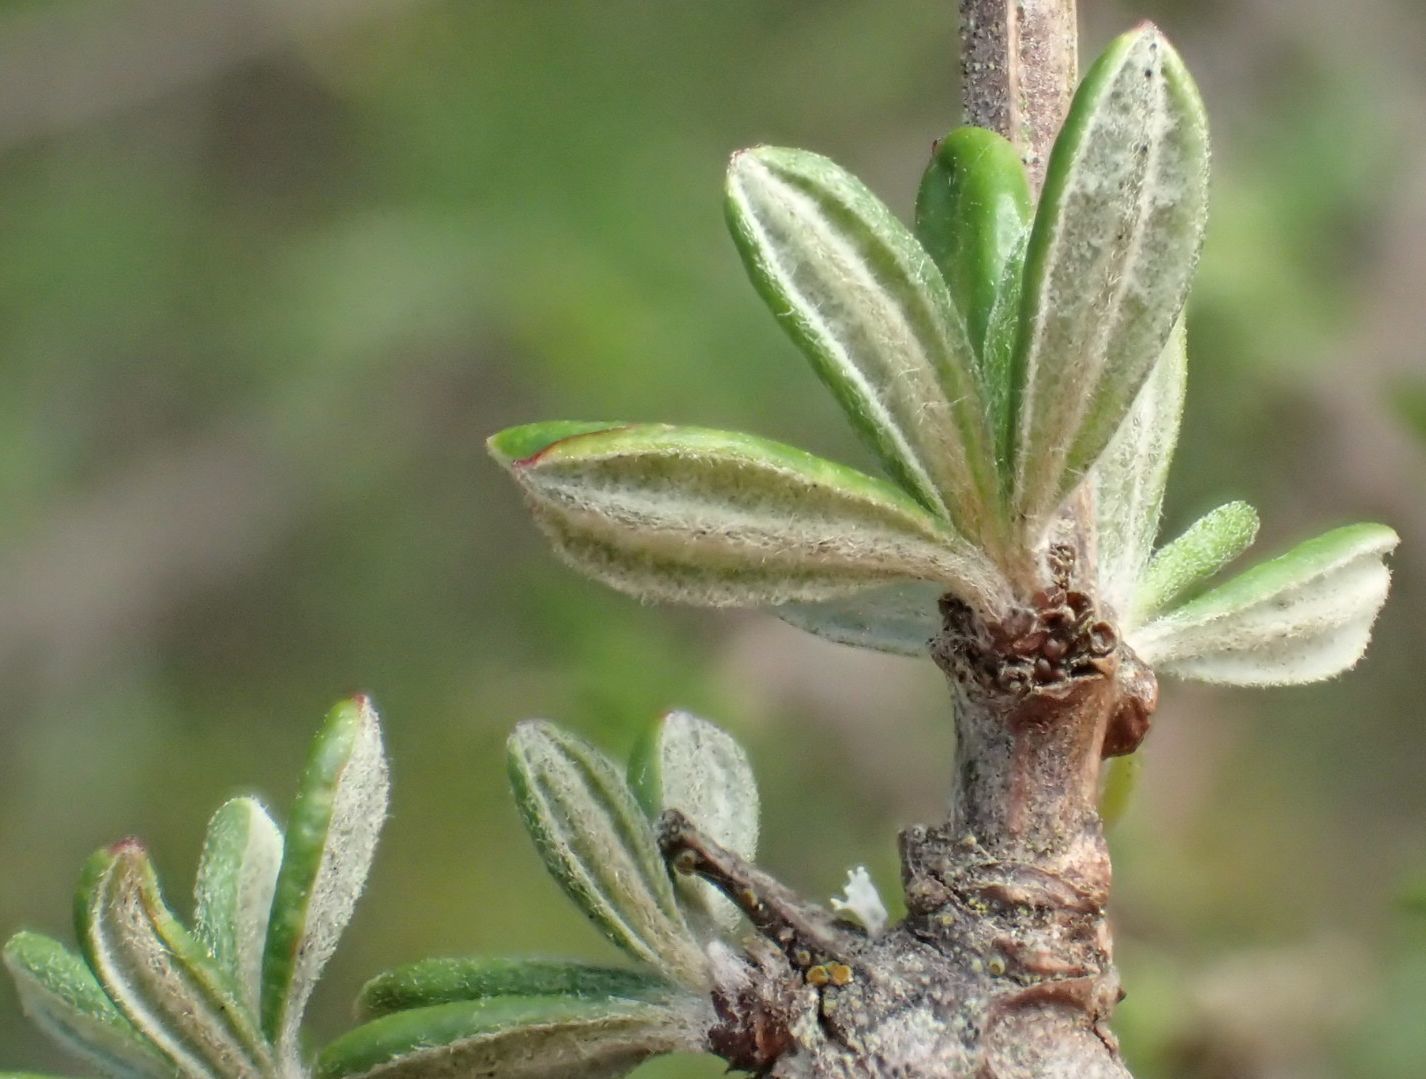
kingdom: Plantae
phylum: Tracheophyta
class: Magnoliopsida
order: Asterales
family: Asteraceae
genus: Olearia
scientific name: Olearia bullata
